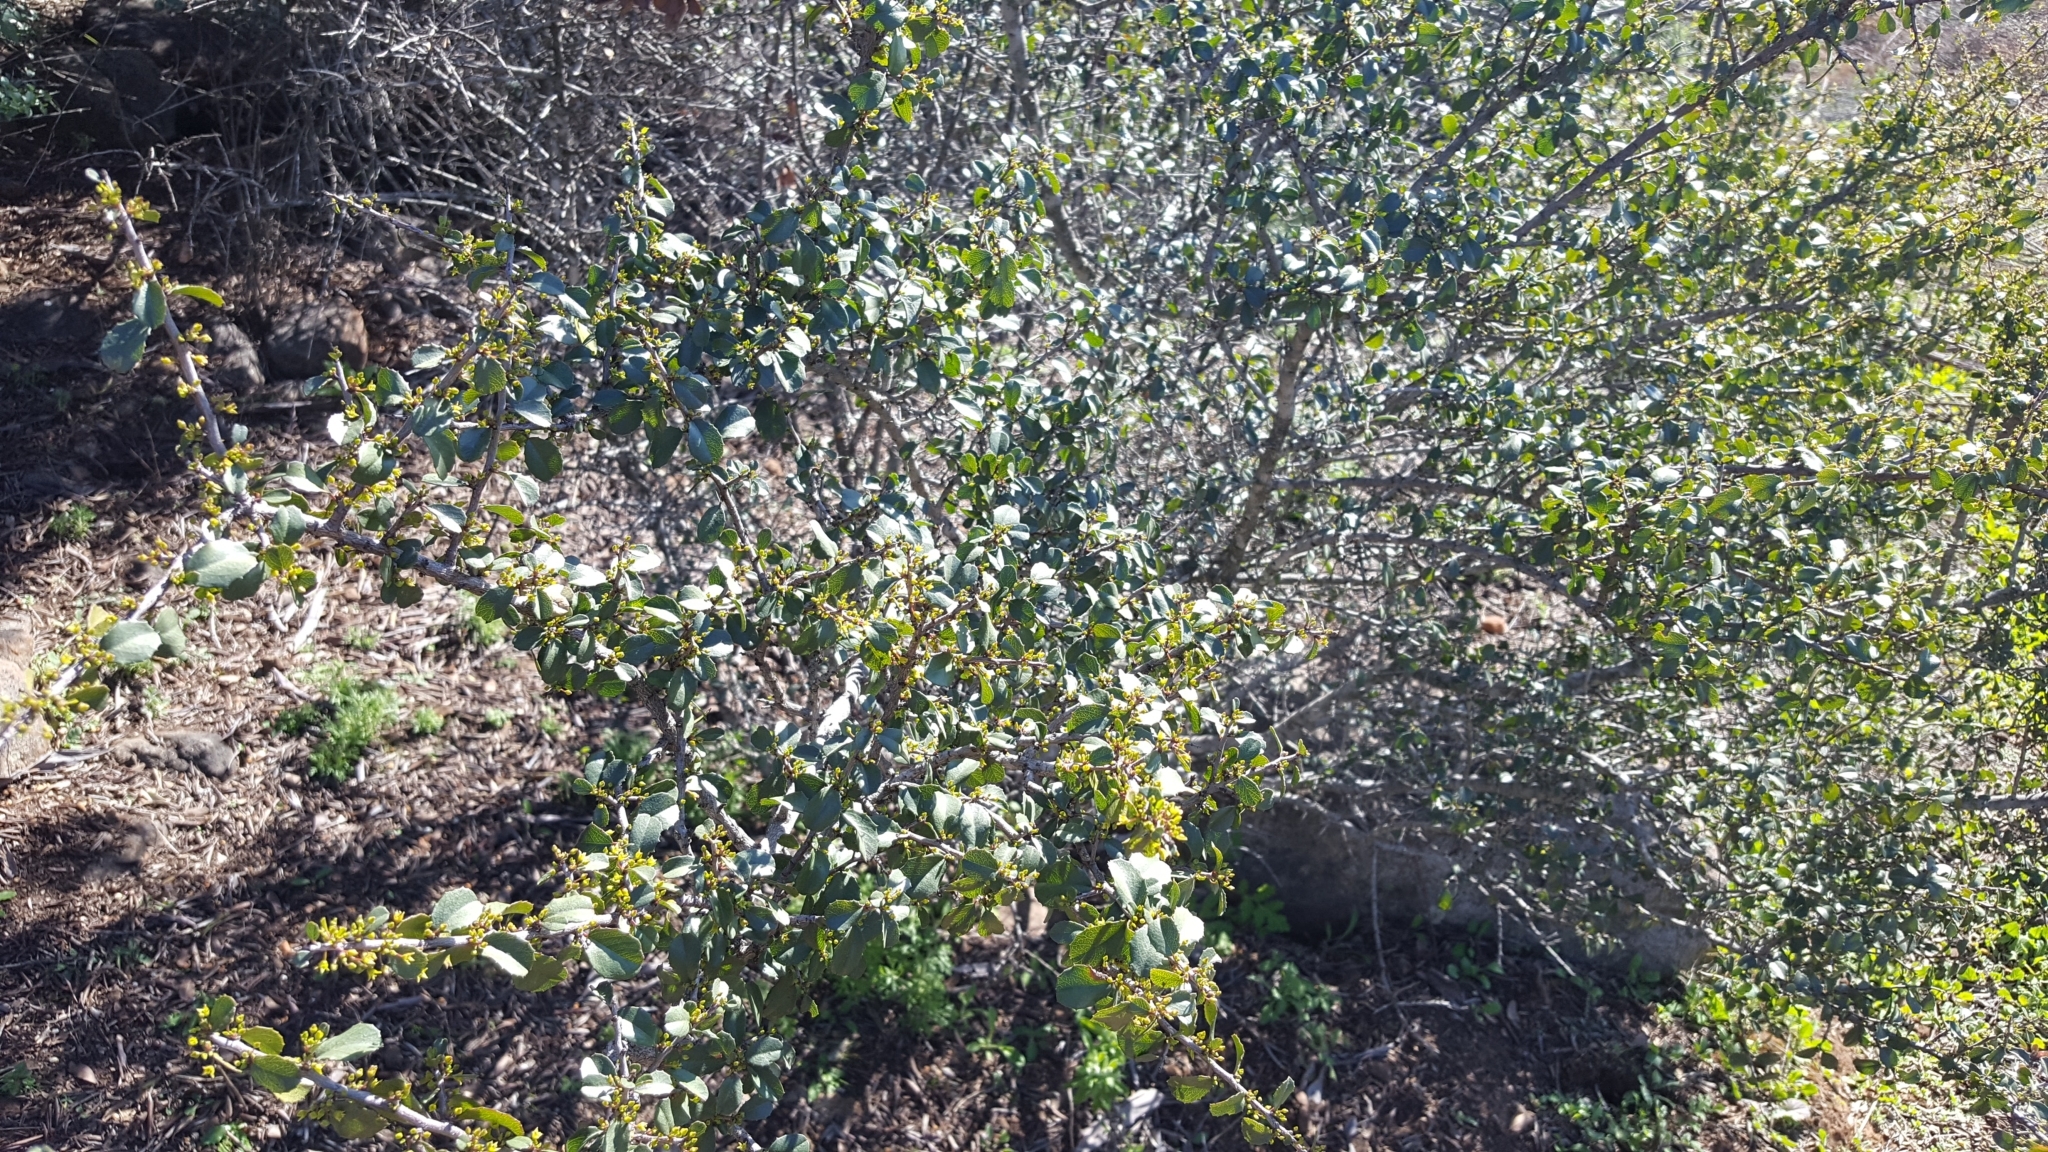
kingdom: Plantae
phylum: Tracheophyta
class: Magnoliopsida
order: Rosales
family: Rhamnaceae
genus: Endotropis
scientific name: Endotropis crocea
